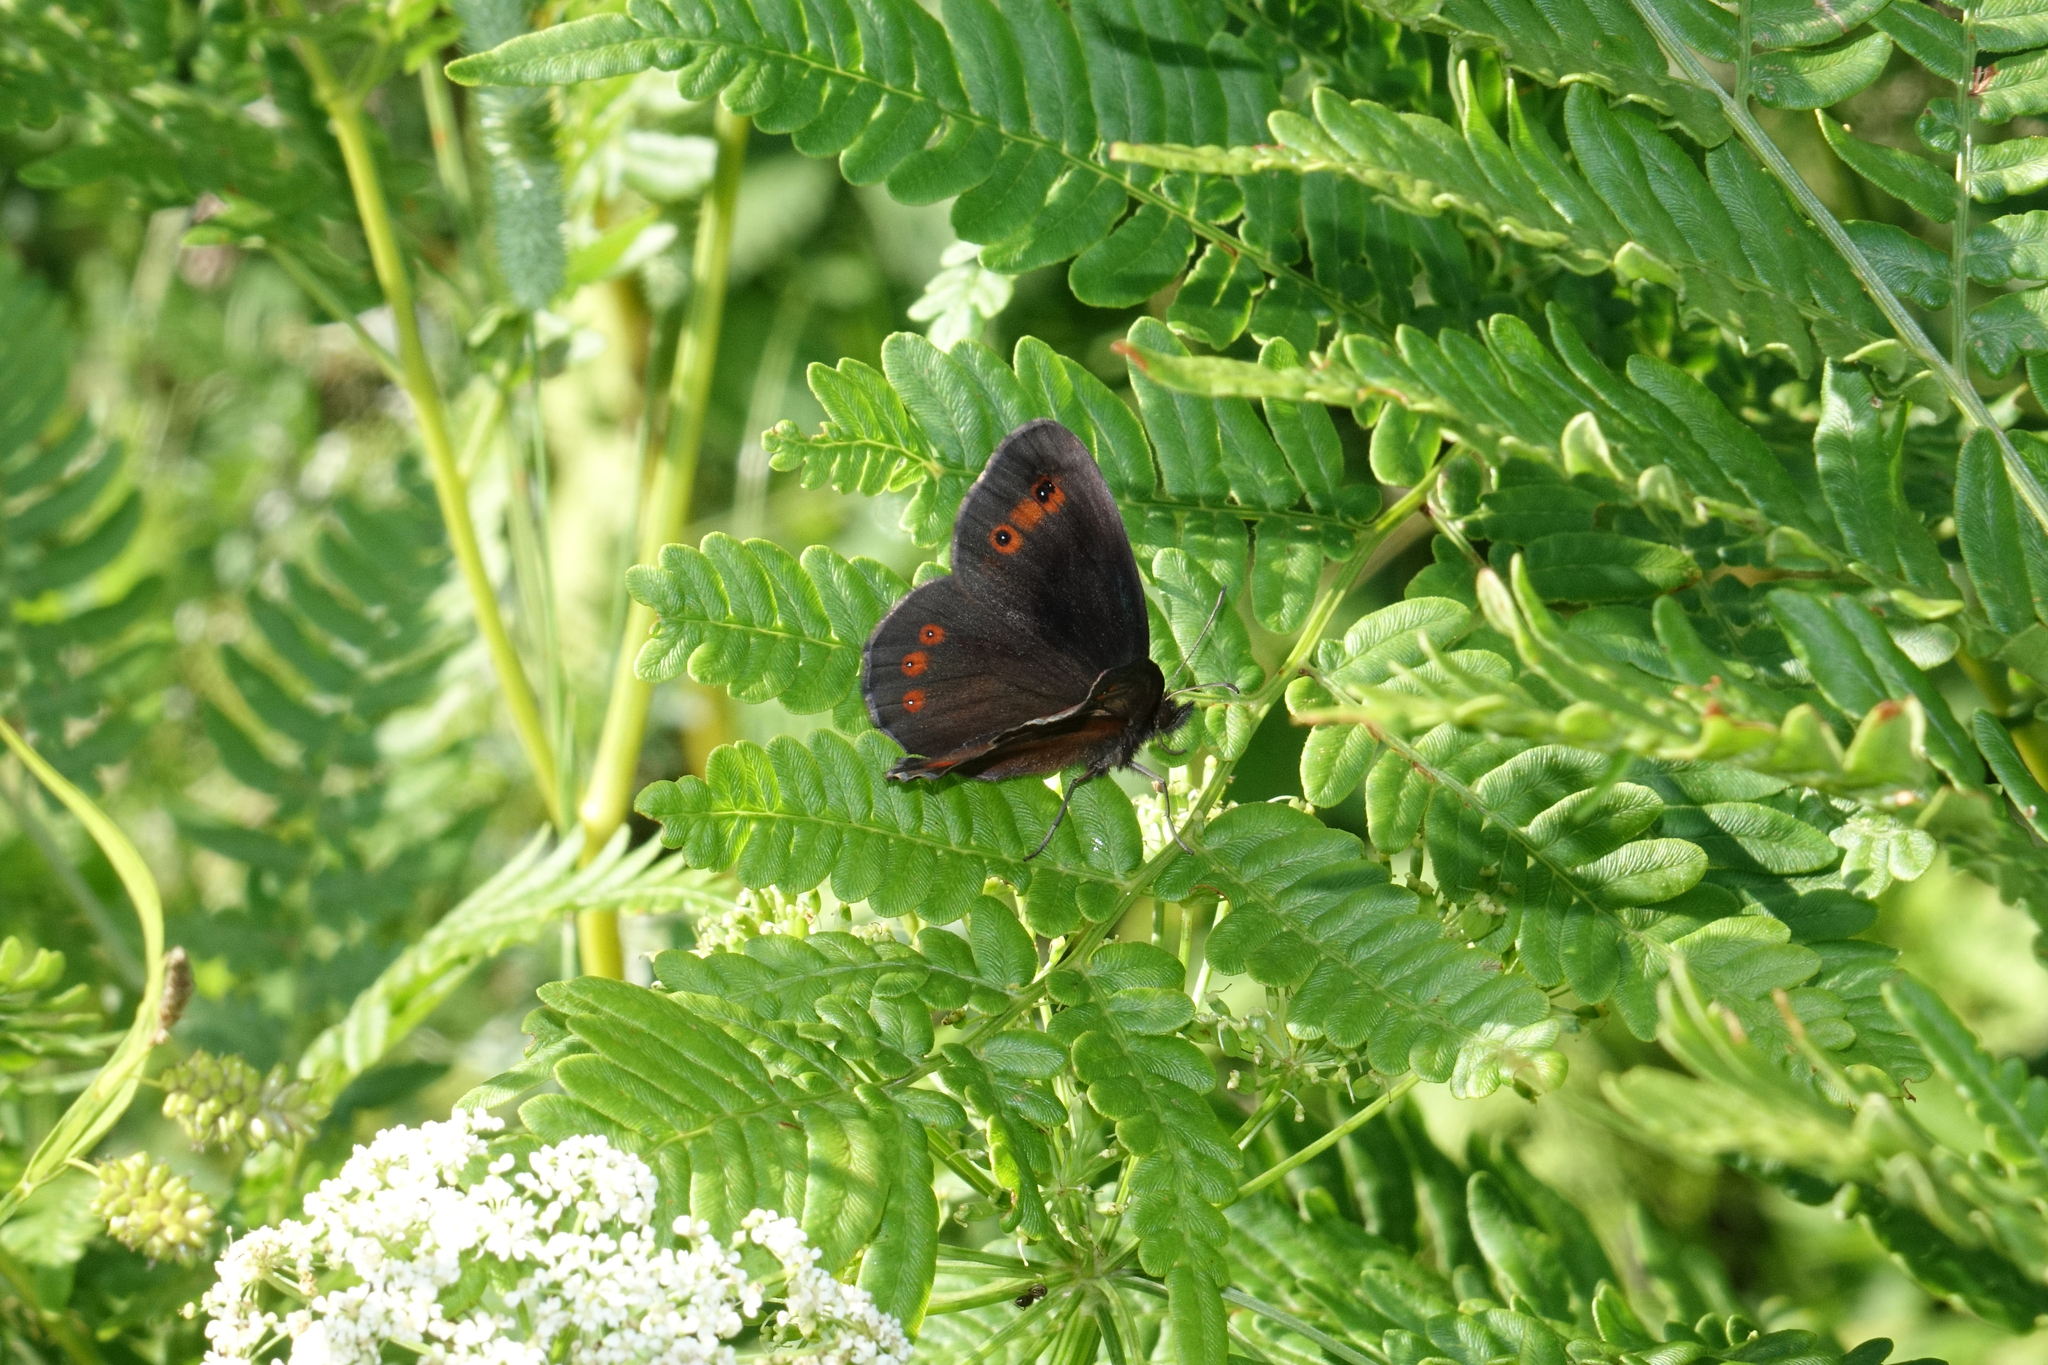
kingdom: Plantae
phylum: Tracheophyta
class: Polypodiopsida
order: Polypodiales
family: Dennstaedtiaceae
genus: Pteridium
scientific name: Pteridium aquilinum
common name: Bracken
